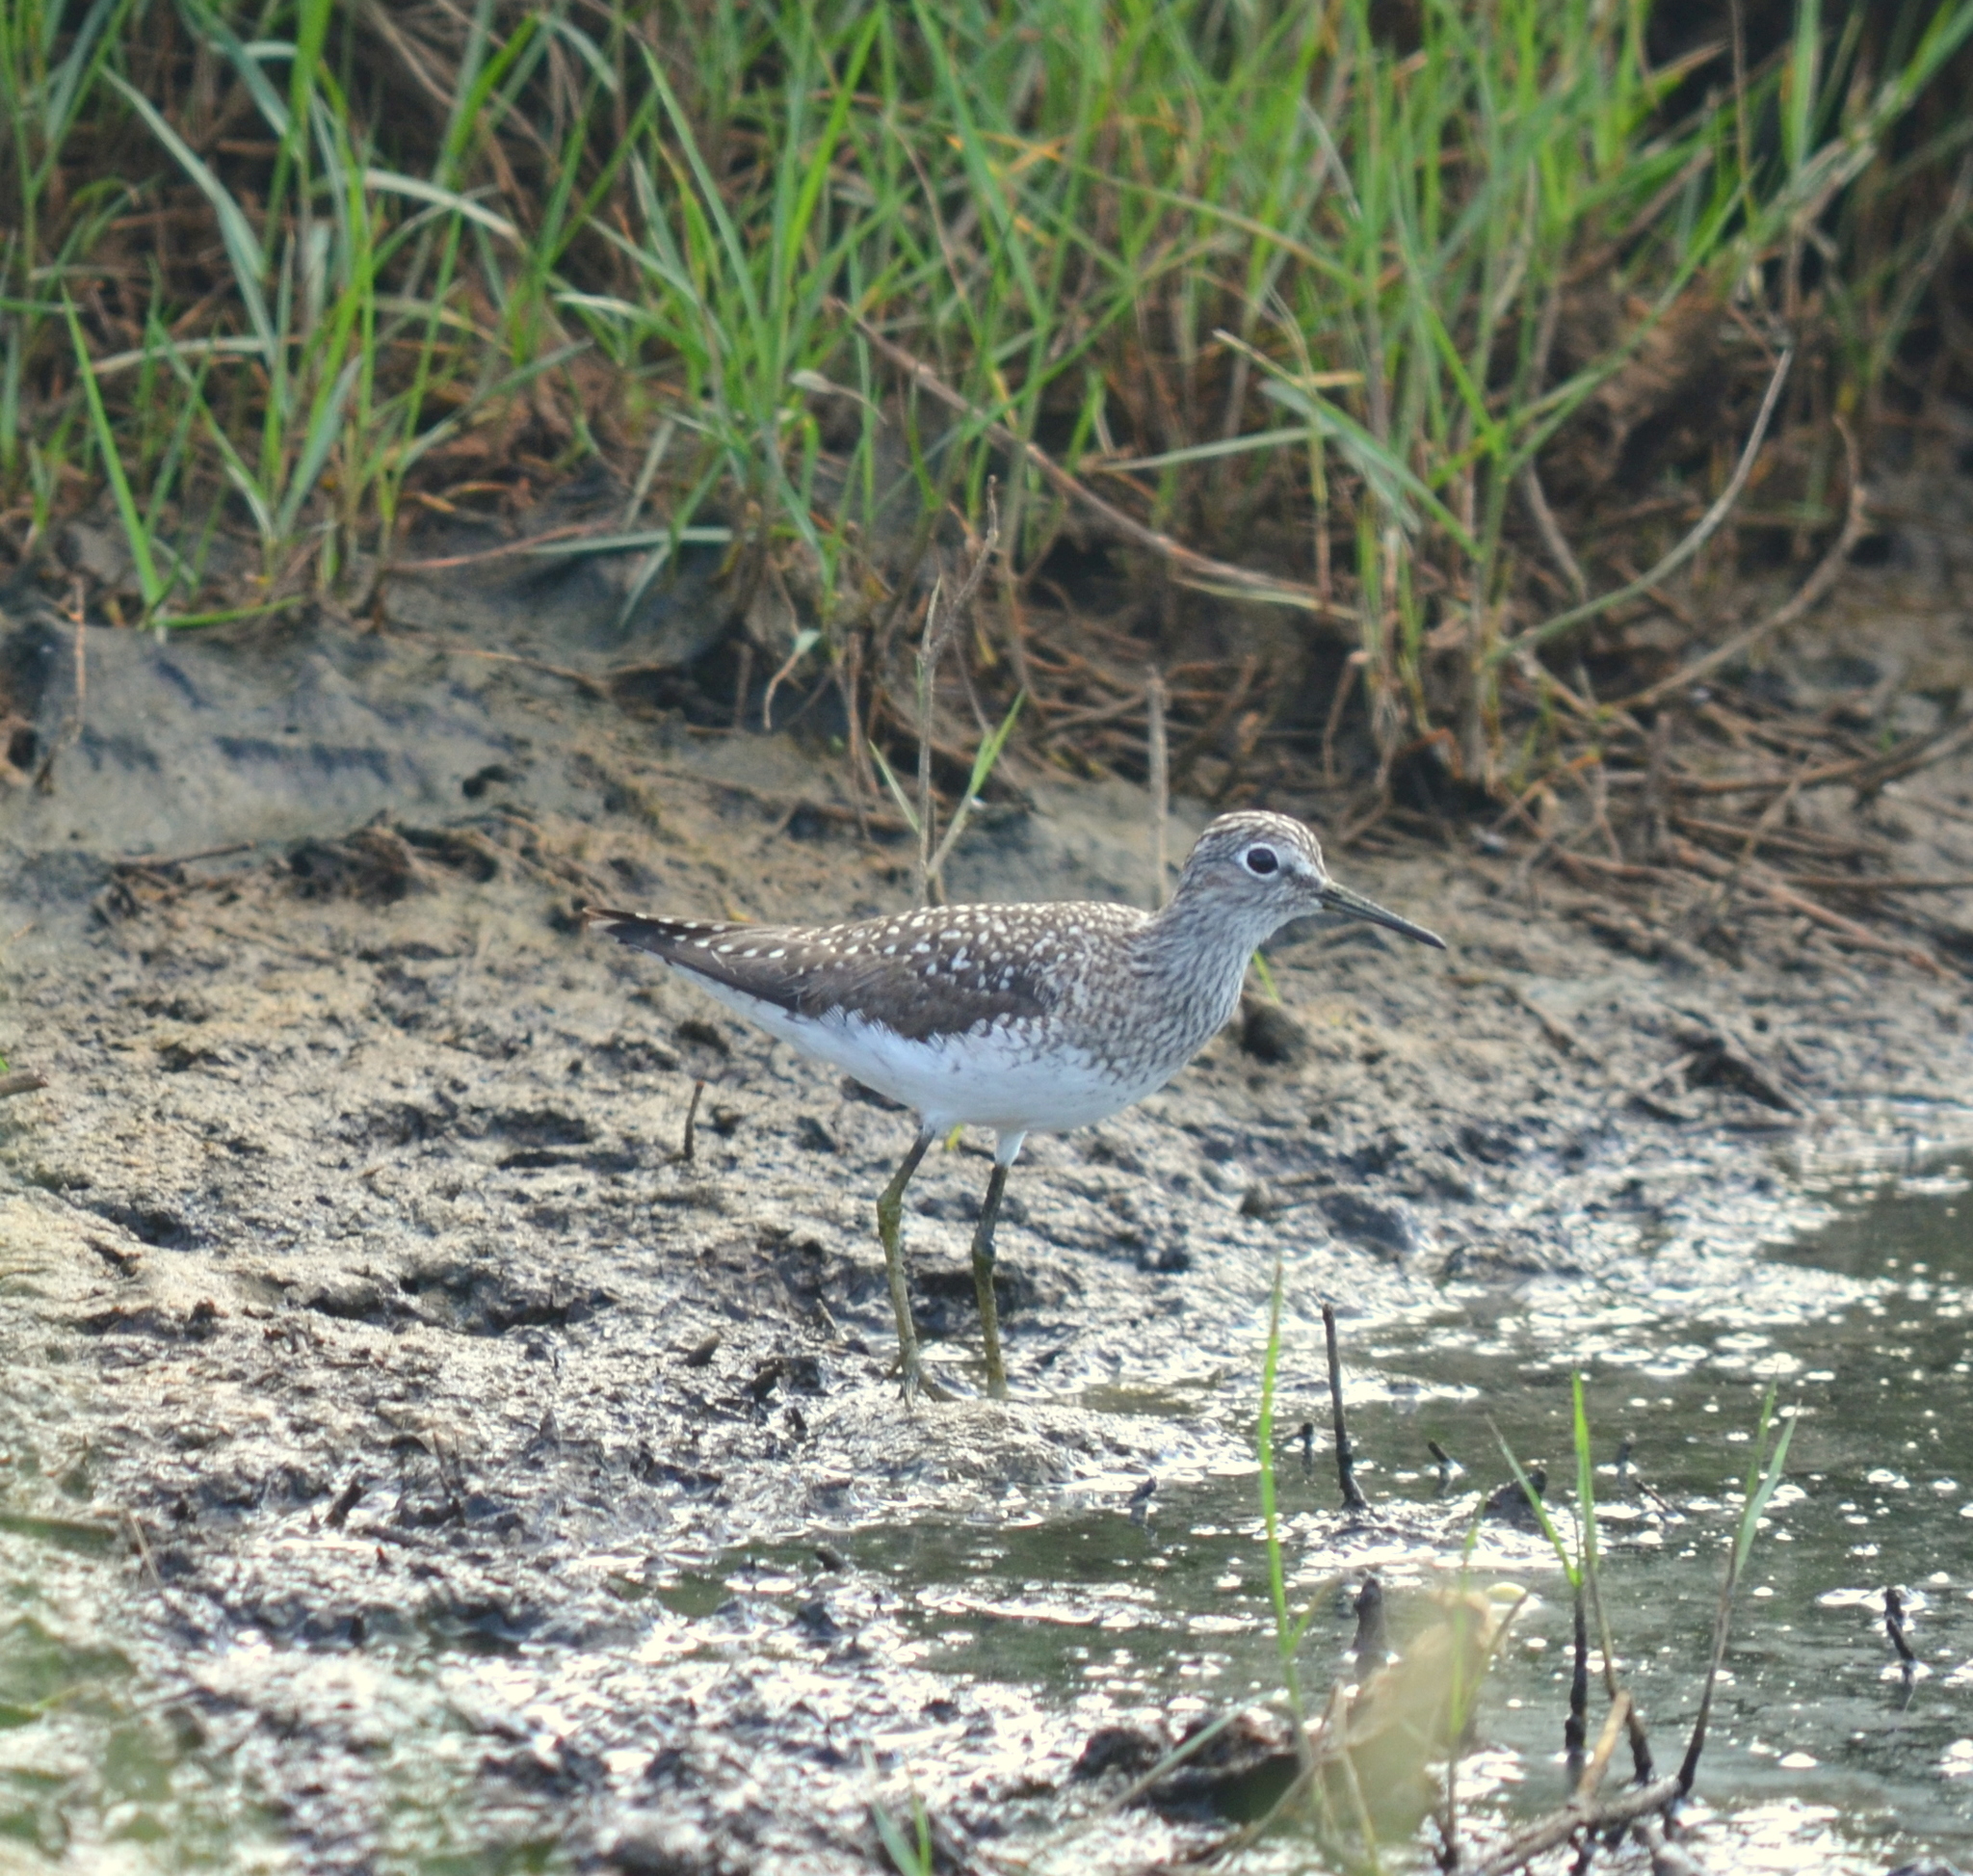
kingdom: Animalia
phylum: Chordata
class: Aves
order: Charadriiformes
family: Scolopacidae
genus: Tringa
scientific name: Tringa solitaria
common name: Solitary sandpiper
